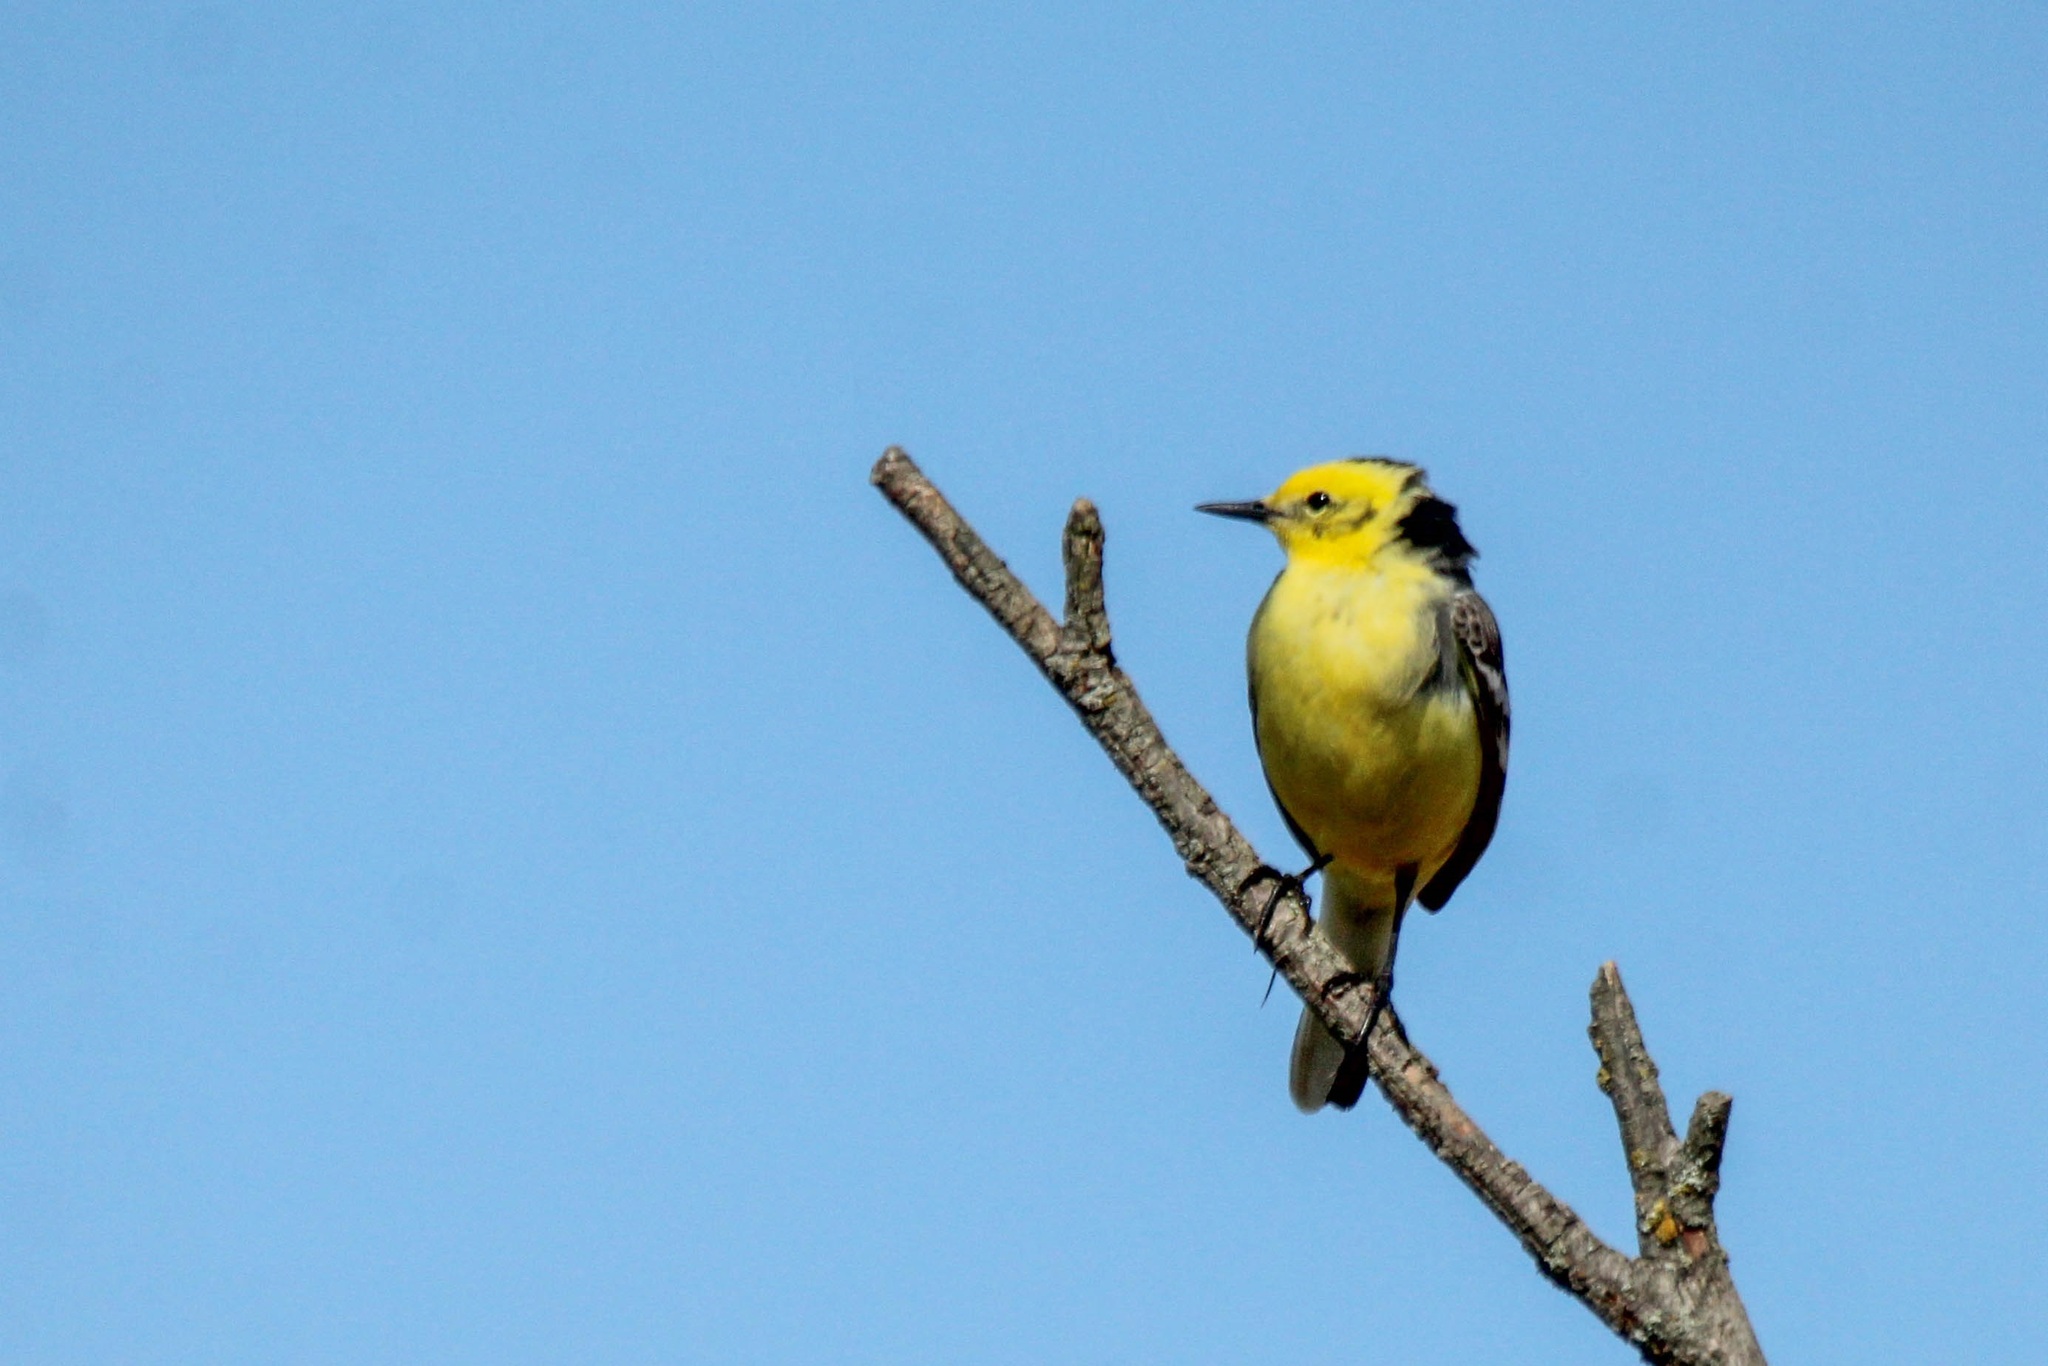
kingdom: Animalia
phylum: Chordata
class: Aves
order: Passeriformes
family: Motacillidae
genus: Motacilla
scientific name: Motacilla citreola
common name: Citrine wagtail
